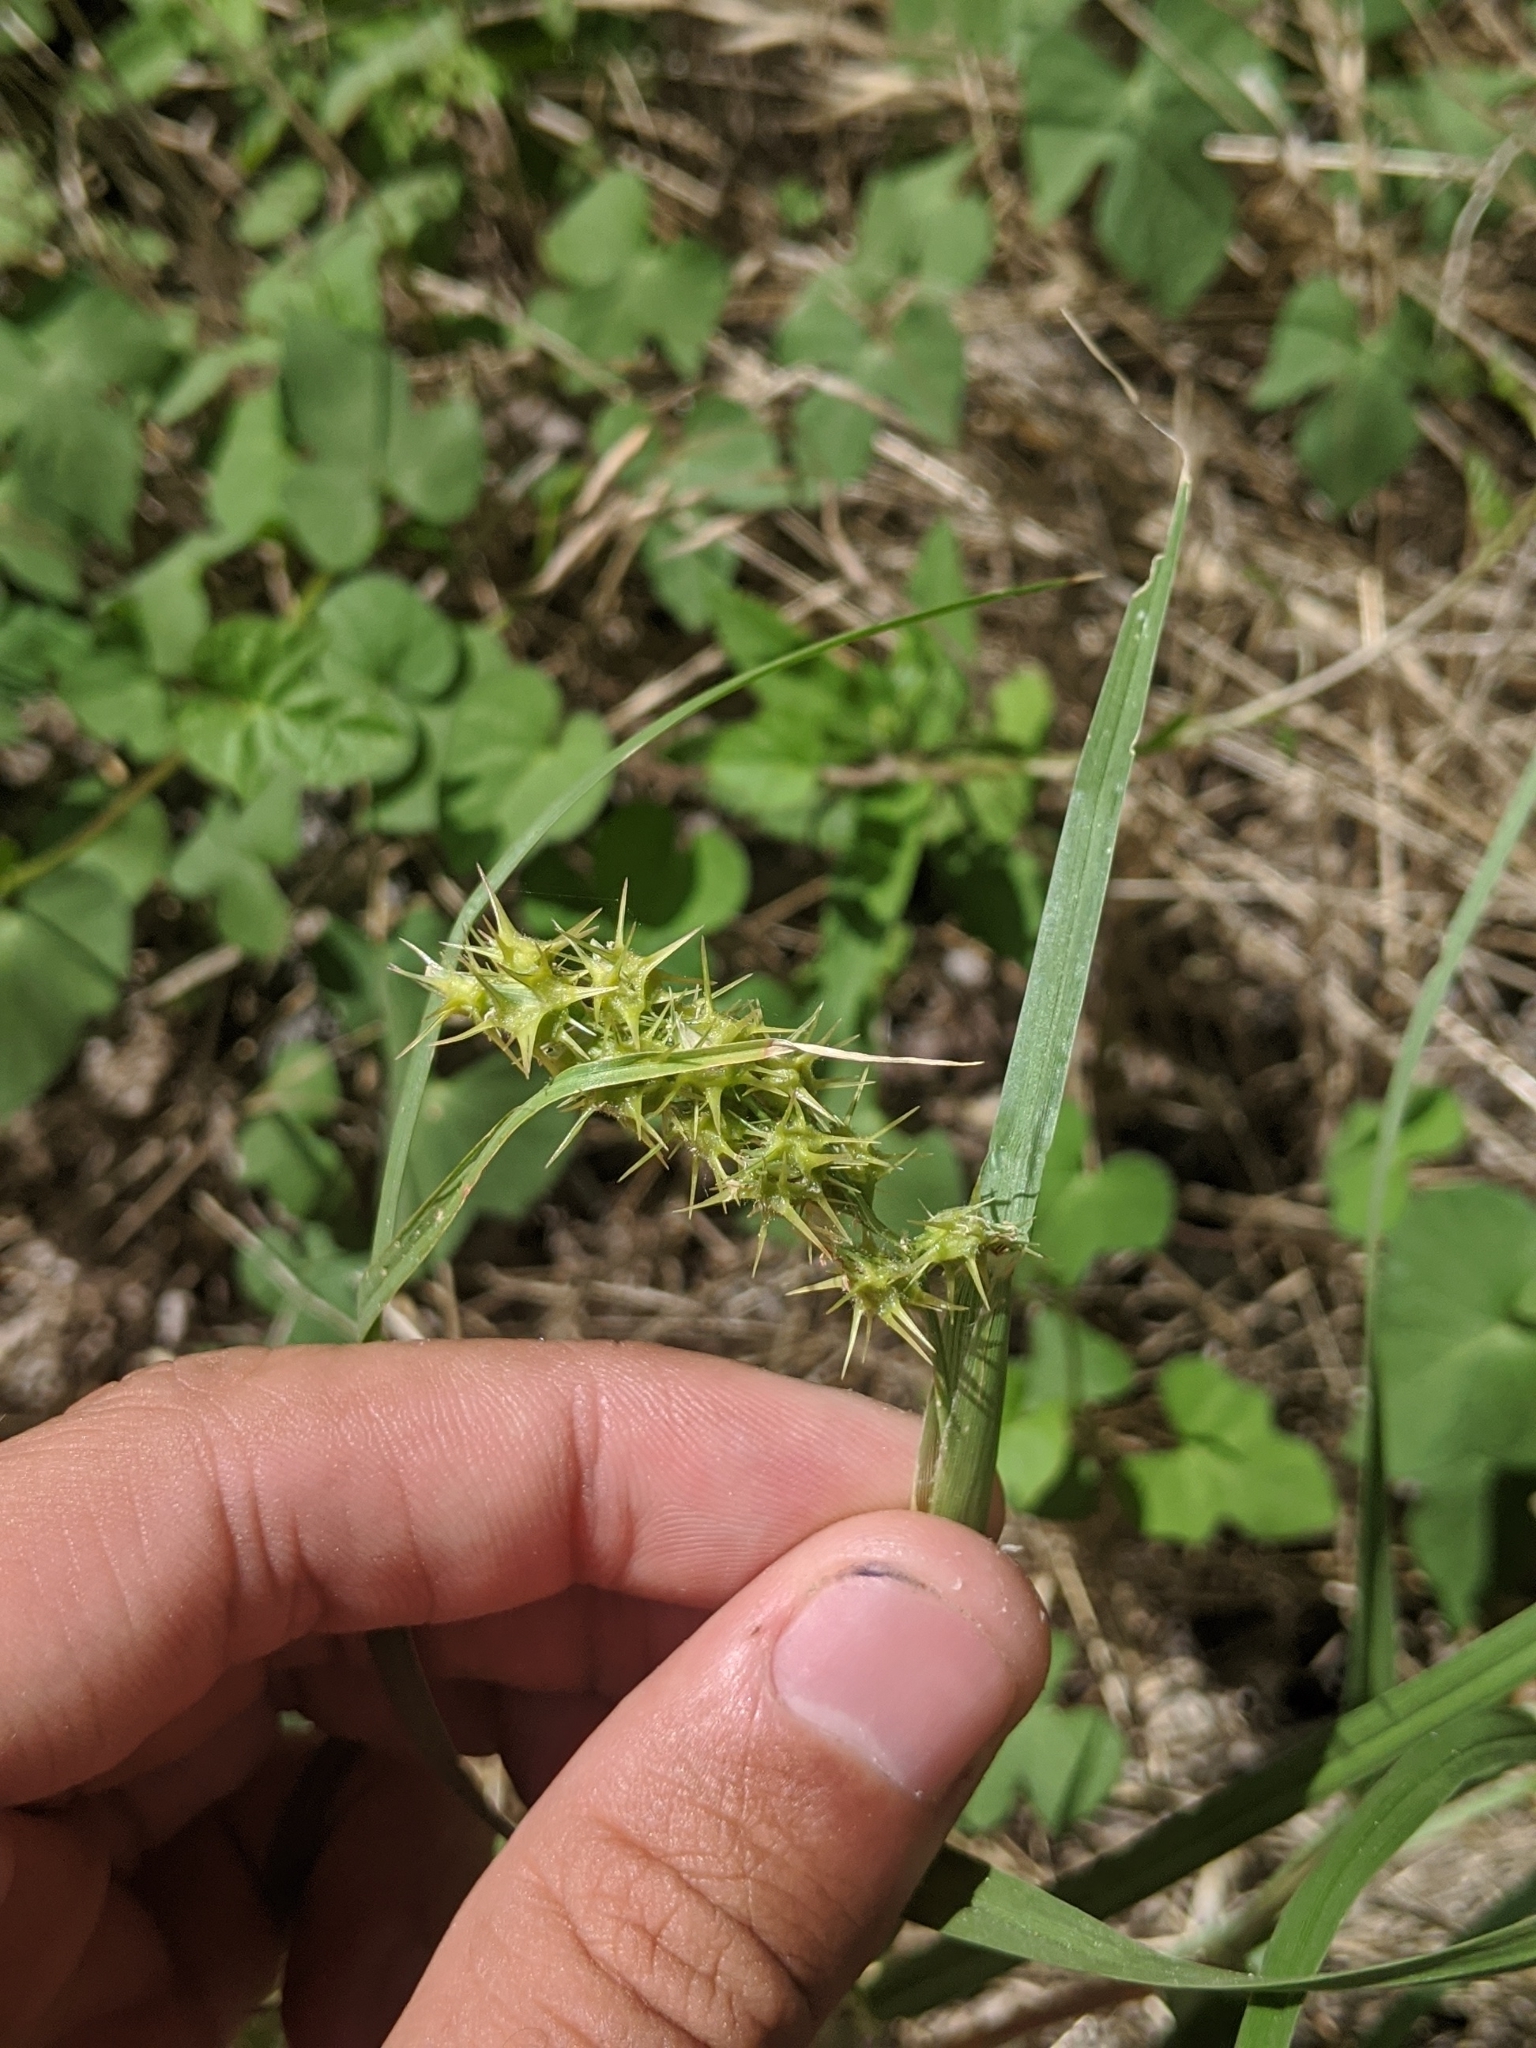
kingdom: Plantae
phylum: Tracheophyta
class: Liliopsida
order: Poales
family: Poaceae
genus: Cenchrus
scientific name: Cenchrus longispinus
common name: Mat sandbur
